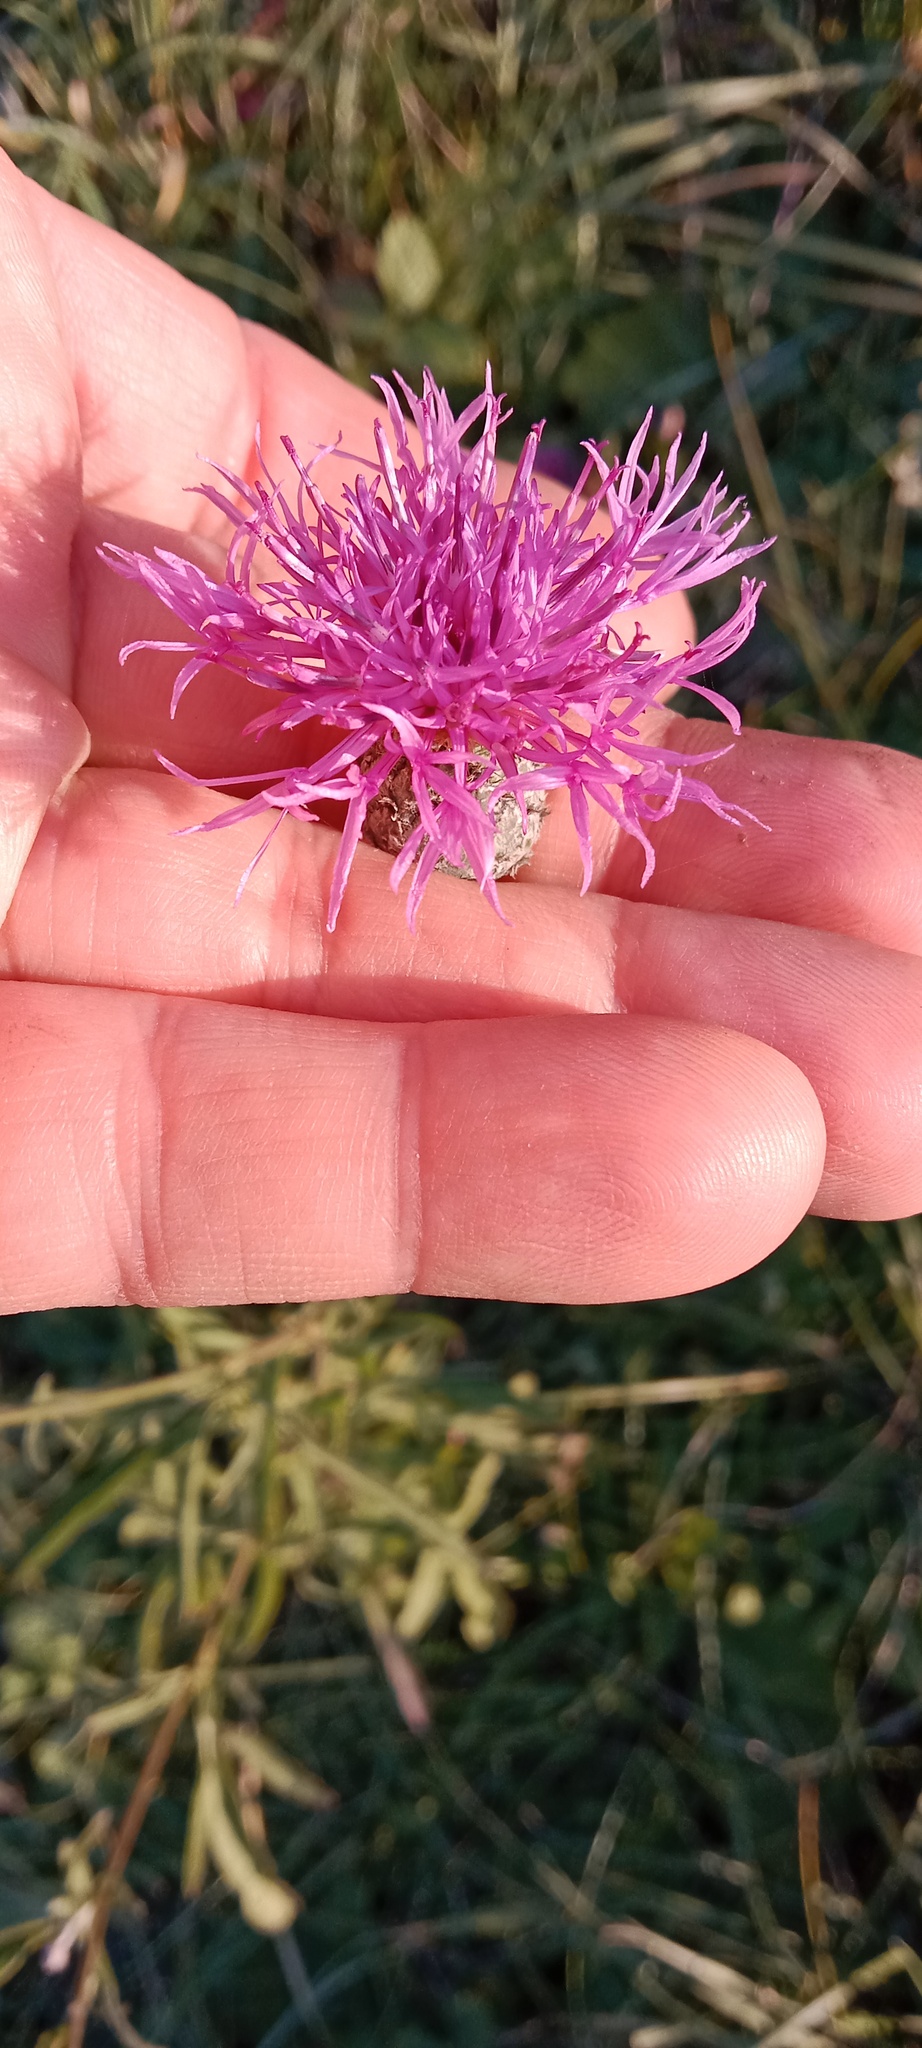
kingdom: Plantae
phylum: Tracheophyta
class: Magnoliopsida
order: Asterales
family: Asteraceae
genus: Centaurea
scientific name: Centaurea scabiosa
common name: Greater knapweed
